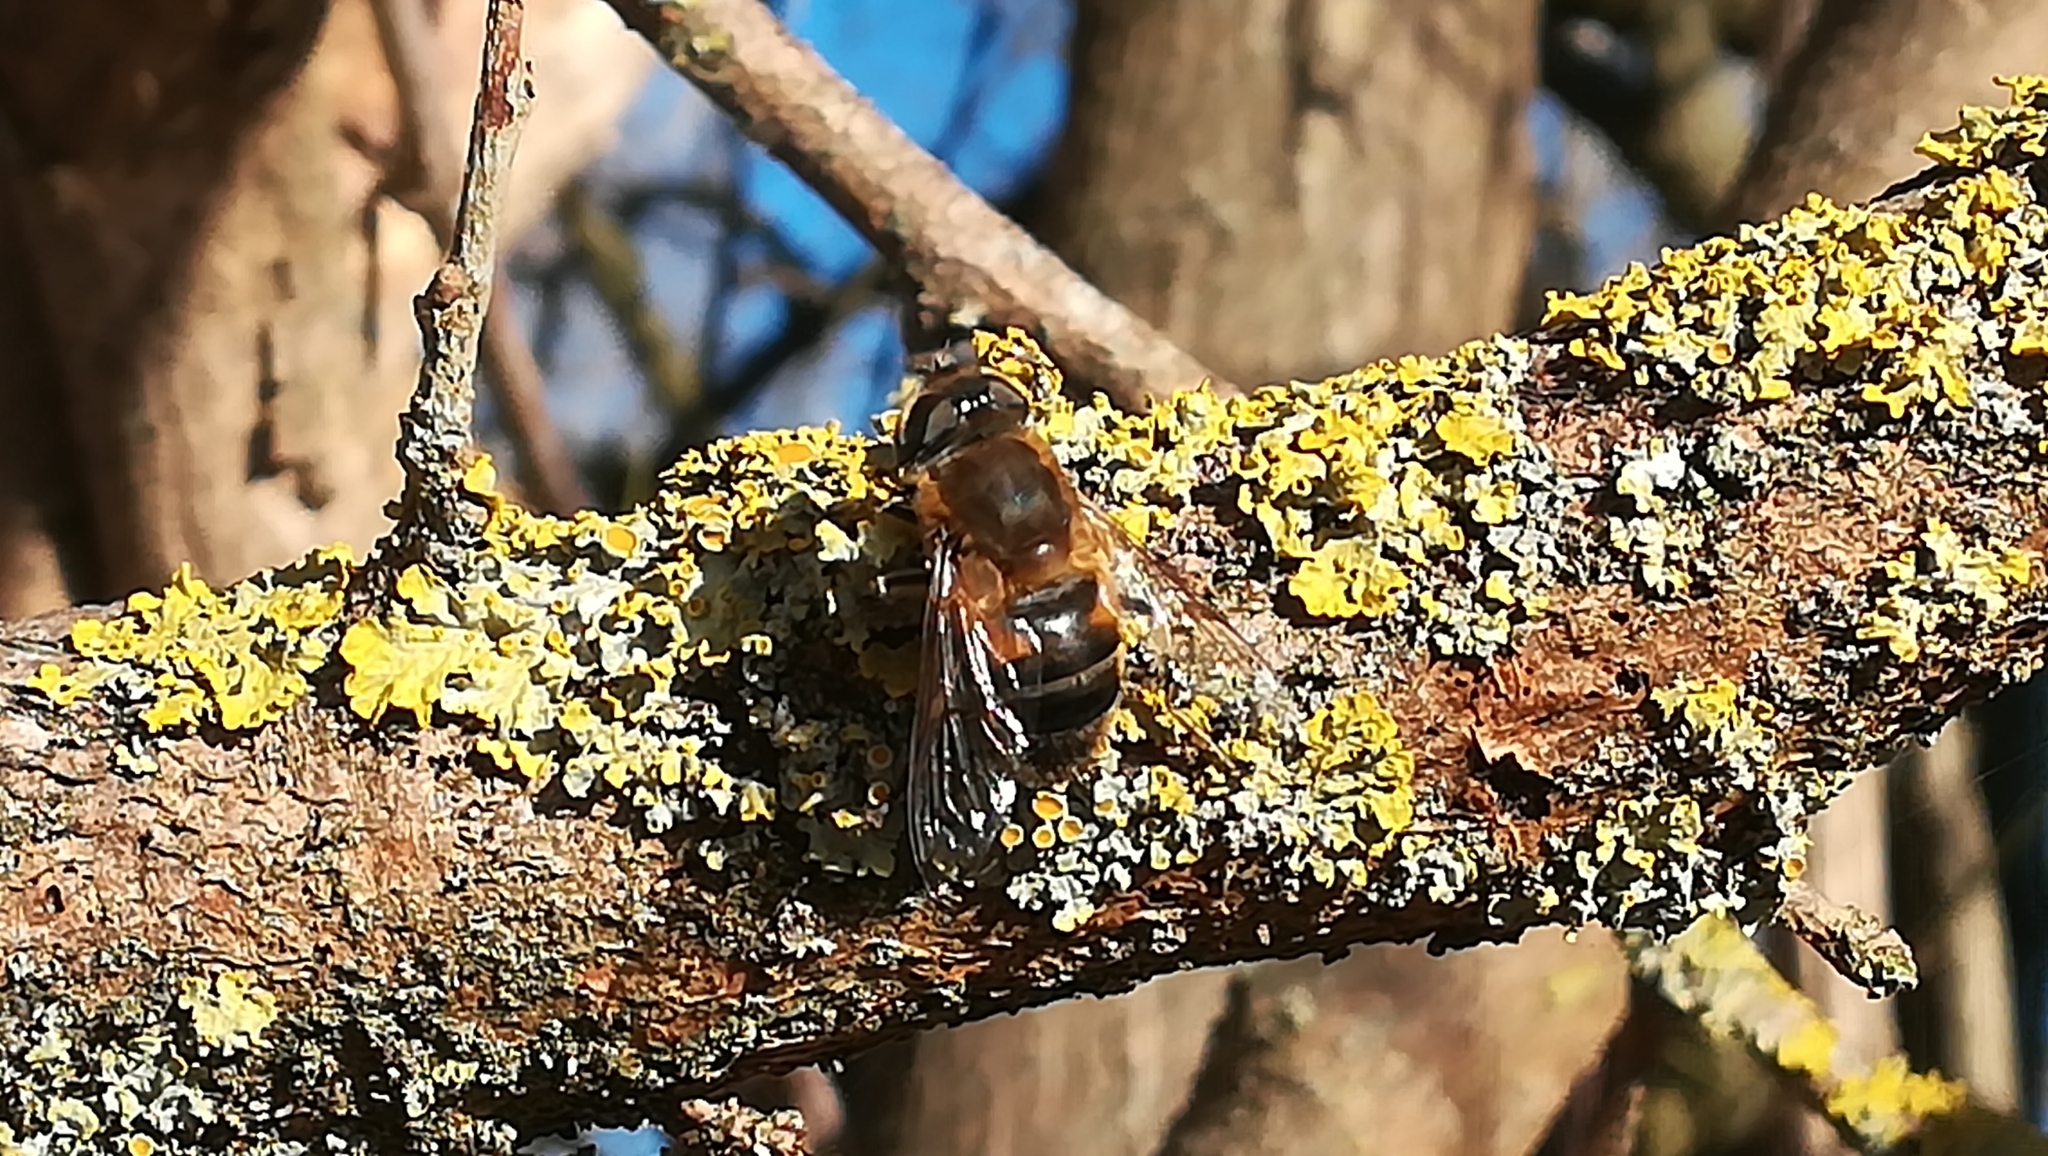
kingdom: Animalia
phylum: Arthropoda
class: Insecta
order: Diptera
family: Syrphidae
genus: Eristalis
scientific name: Eristalis pertinax
